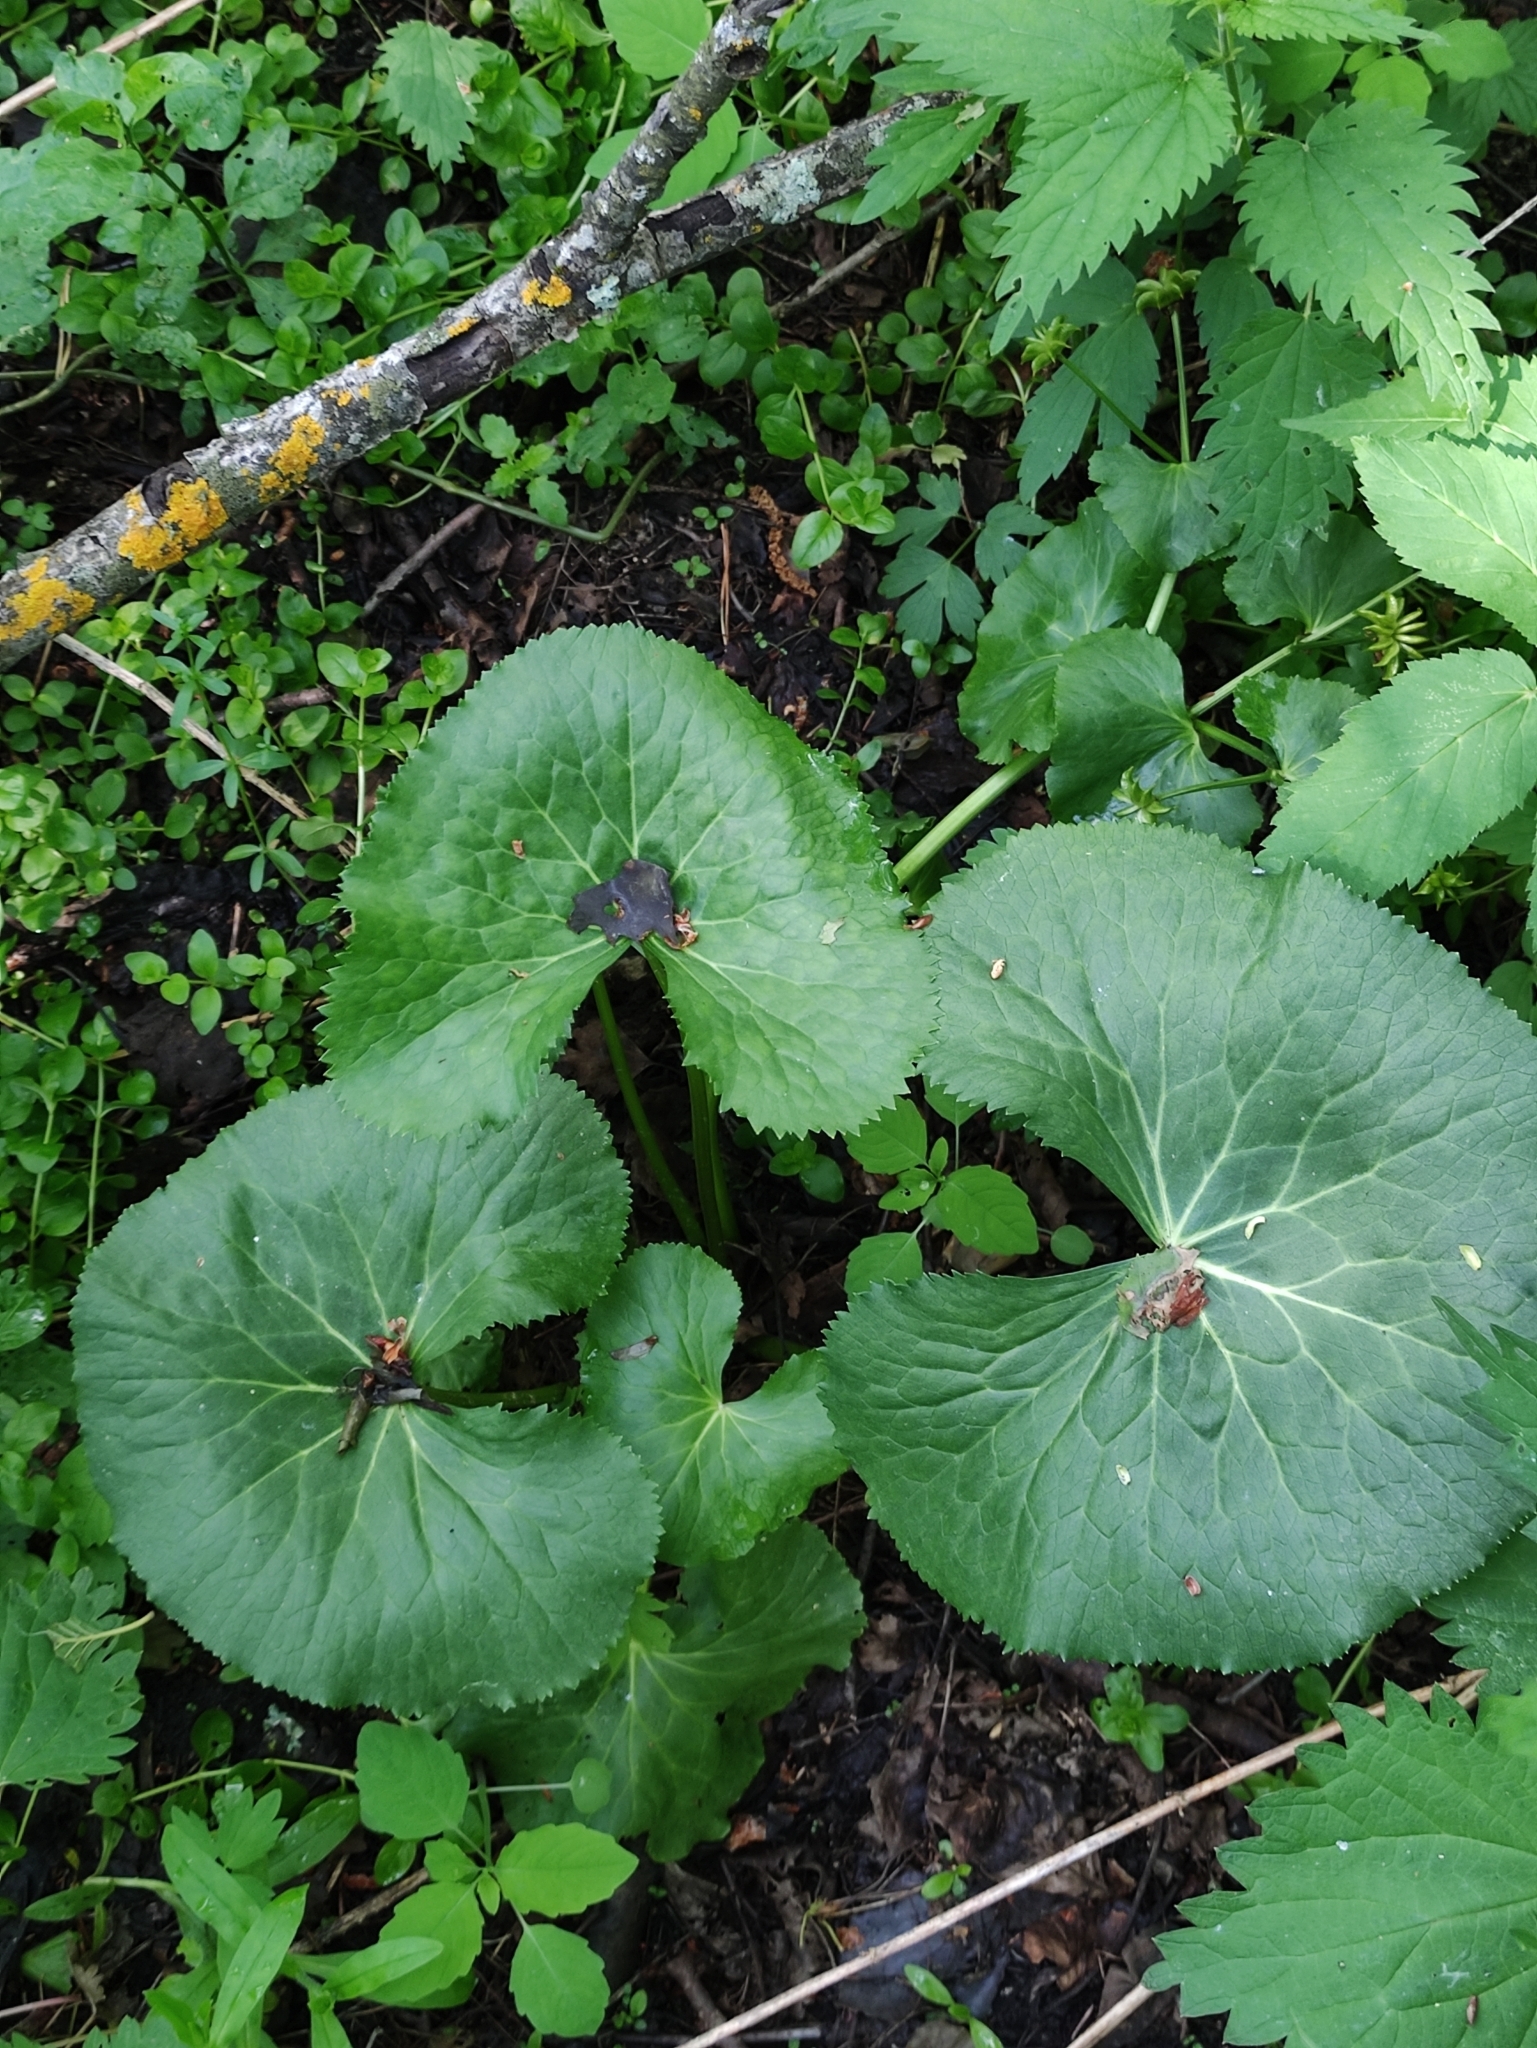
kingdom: Plantae
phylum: Tracheophyta
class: Magnoliopsida
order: Ranunculales
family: Ranunculaceae
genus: Caltha
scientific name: Caltha palustris
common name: Marsh marigold
